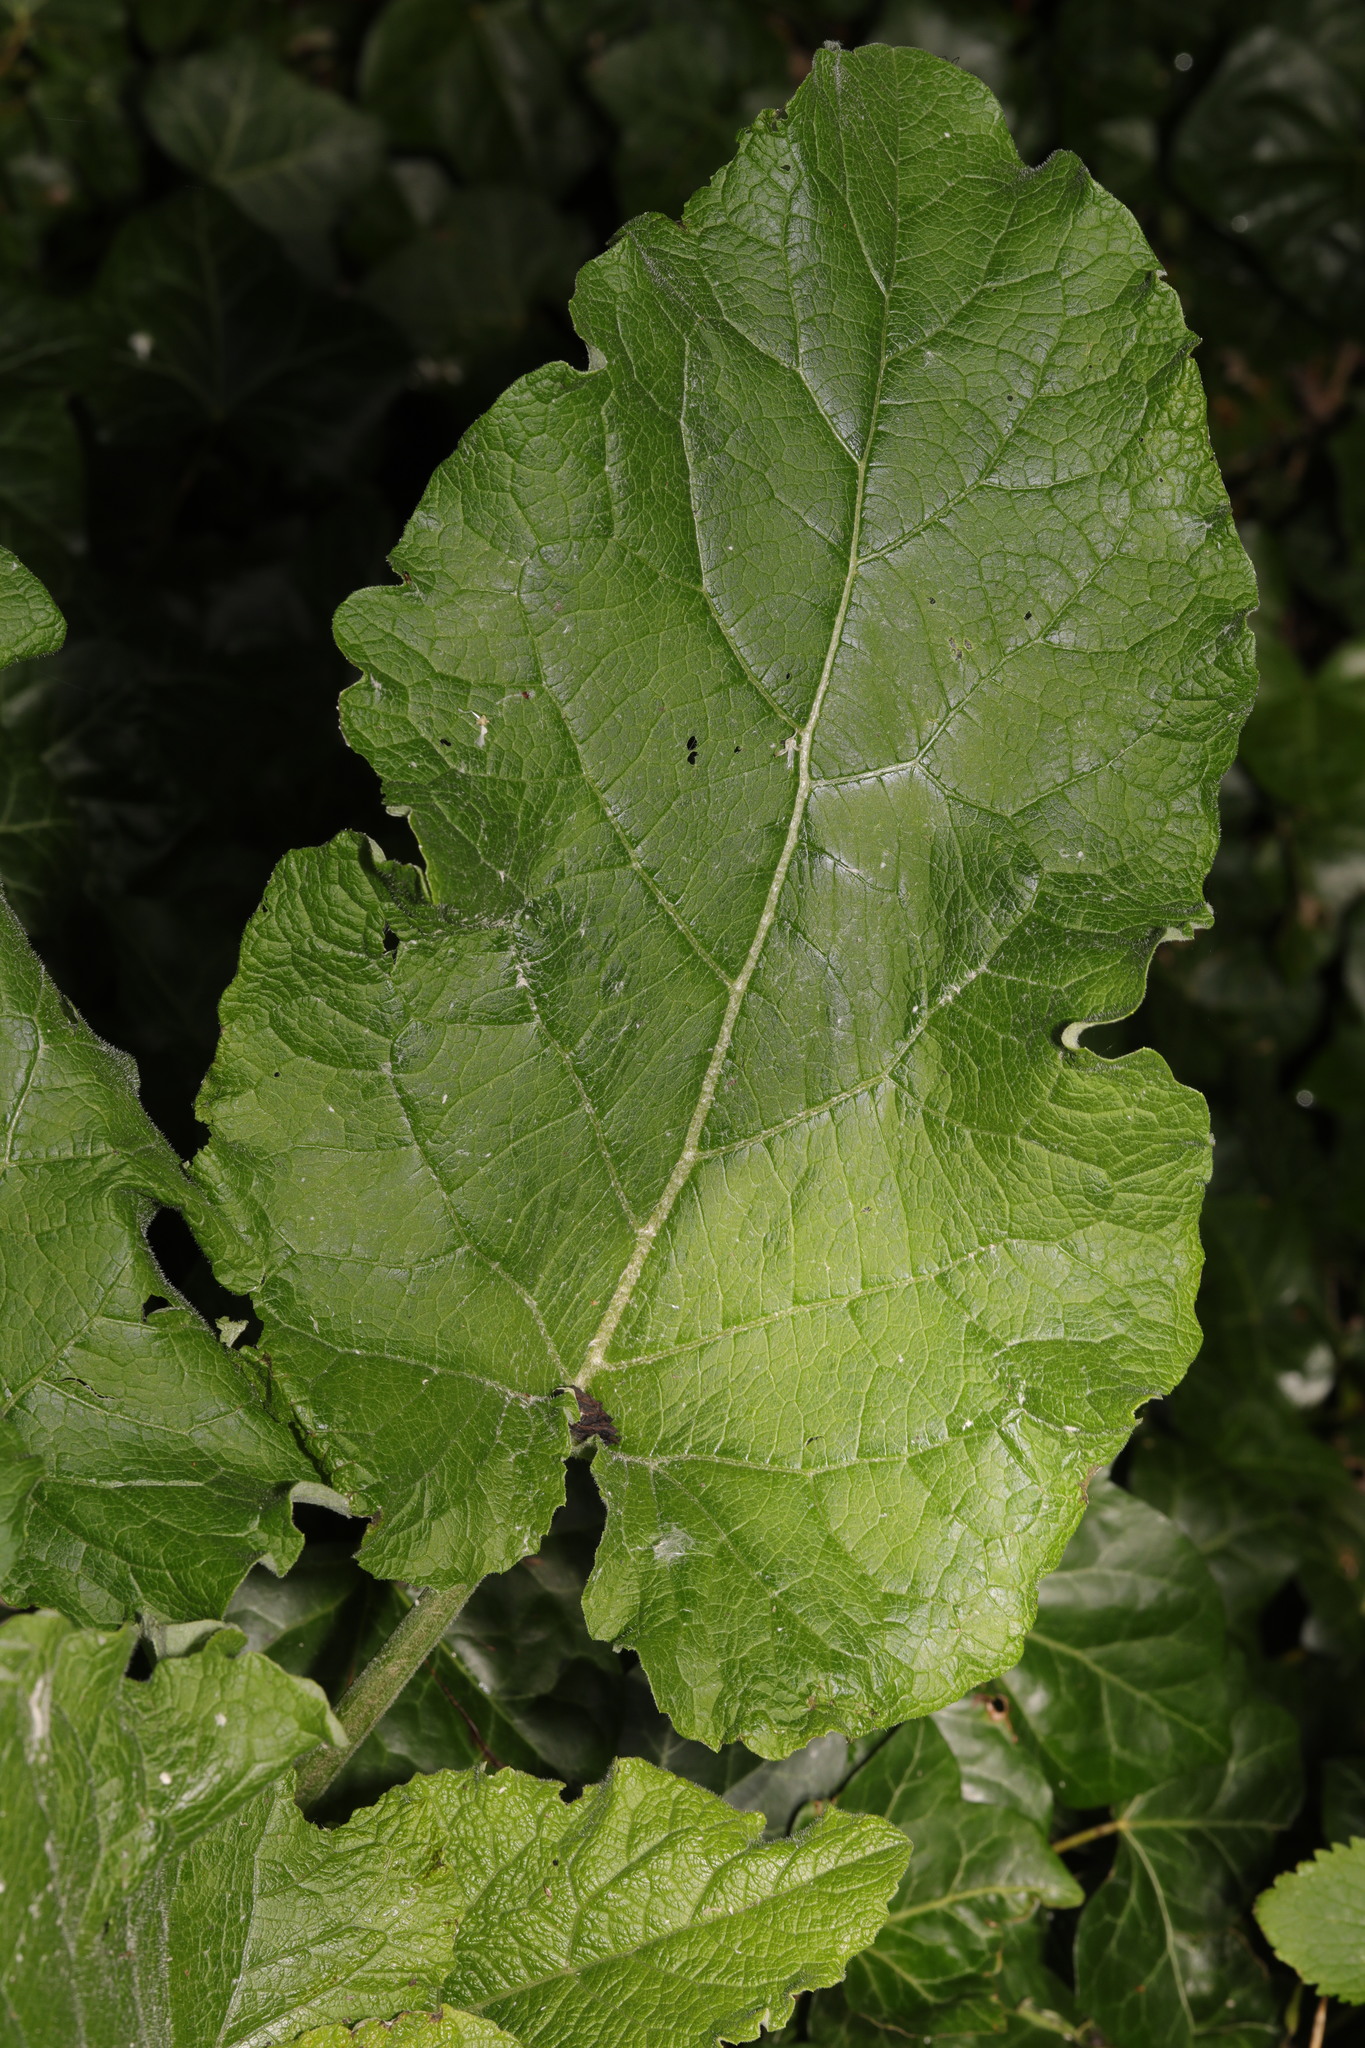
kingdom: Plantae
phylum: Tracheophyta
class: Magnoliopsida
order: Asterales
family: Asteraceae
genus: Arctium
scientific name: Arctium minus
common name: Lesser burdock
